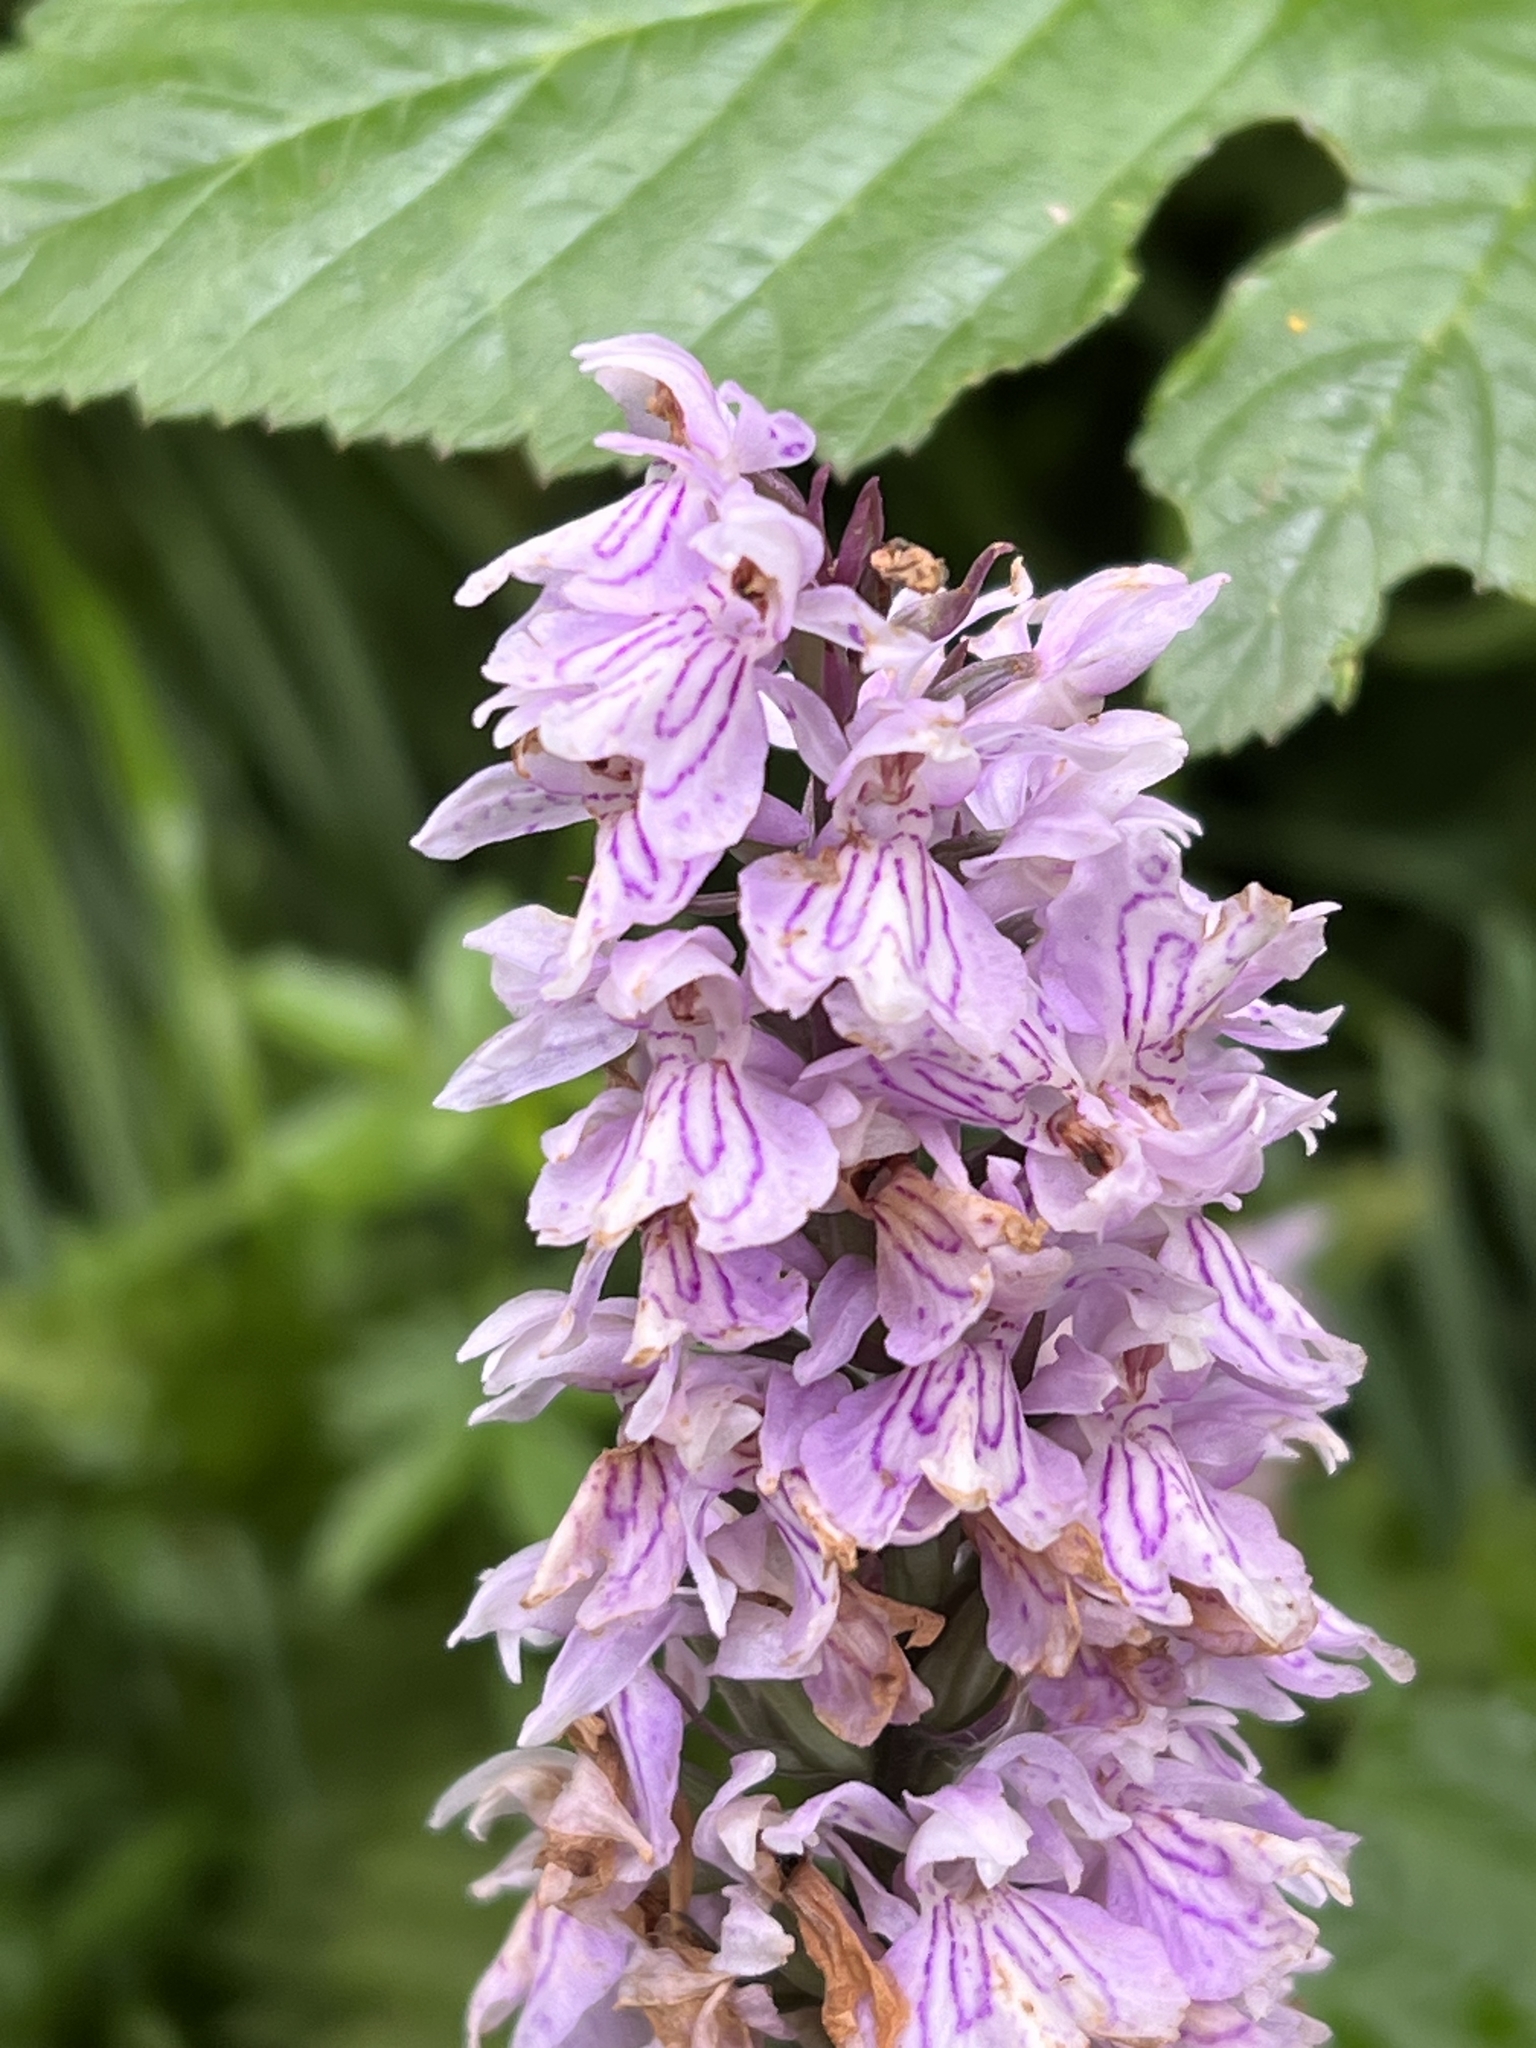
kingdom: Plantae
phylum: Tracheophyta
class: Liliopsida
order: Asparagales
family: Orchidaceae
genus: Dactylorhiza
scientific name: Dactylorhiza maculata
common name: Heath spotted-orchid
